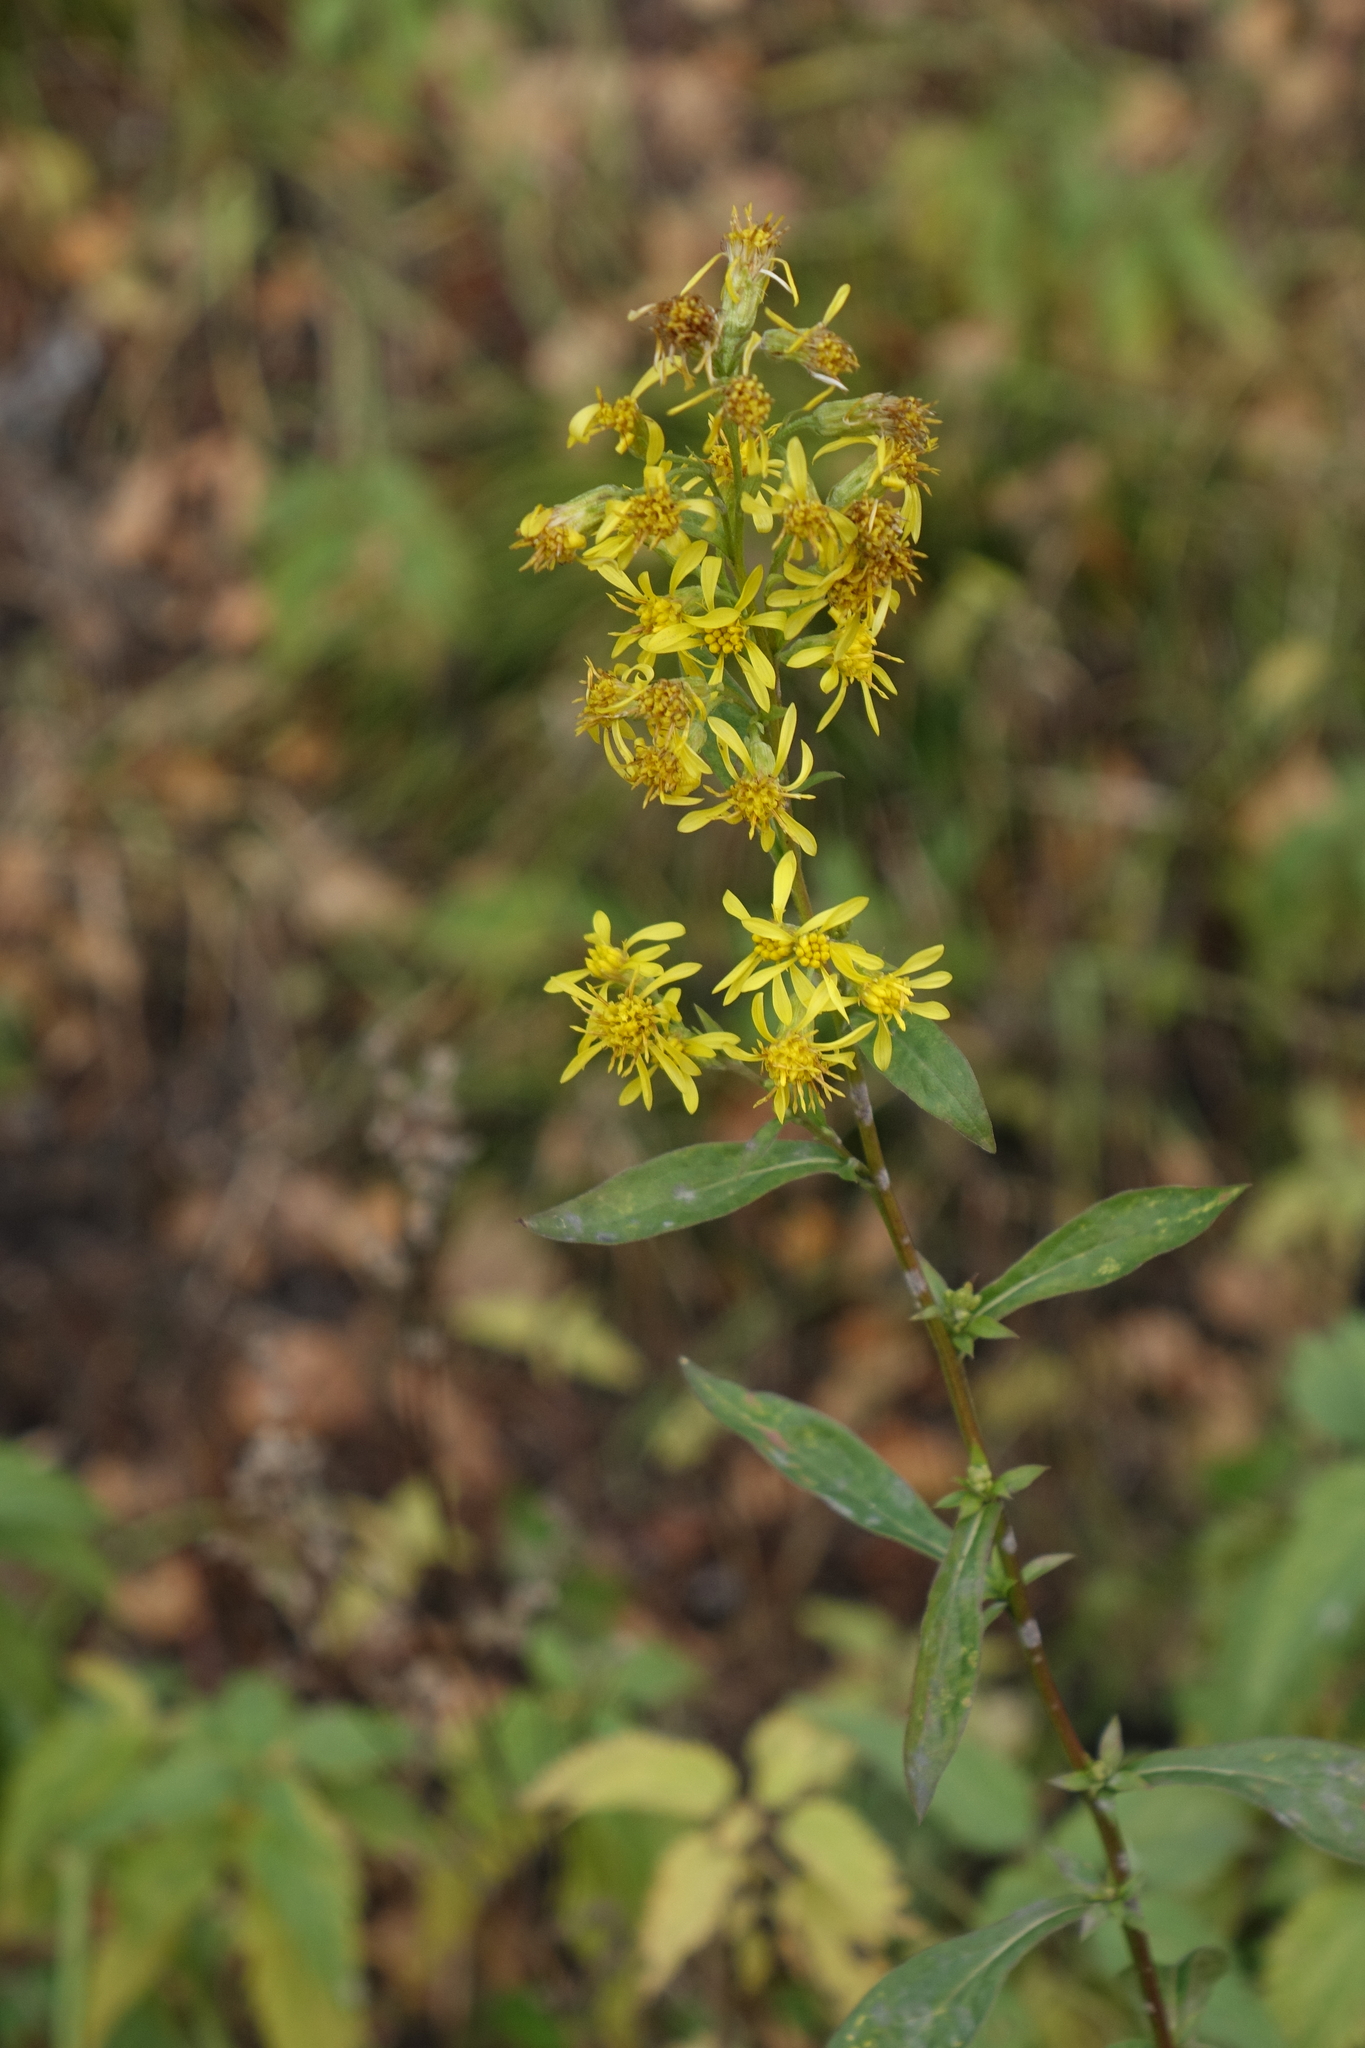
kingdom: Plantae
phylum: Tracheophyta
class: Magnoliopsida
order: Asterales
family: Asteraceae
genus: Solidago
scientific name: Solidago virgaurea
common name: Goldenrod
